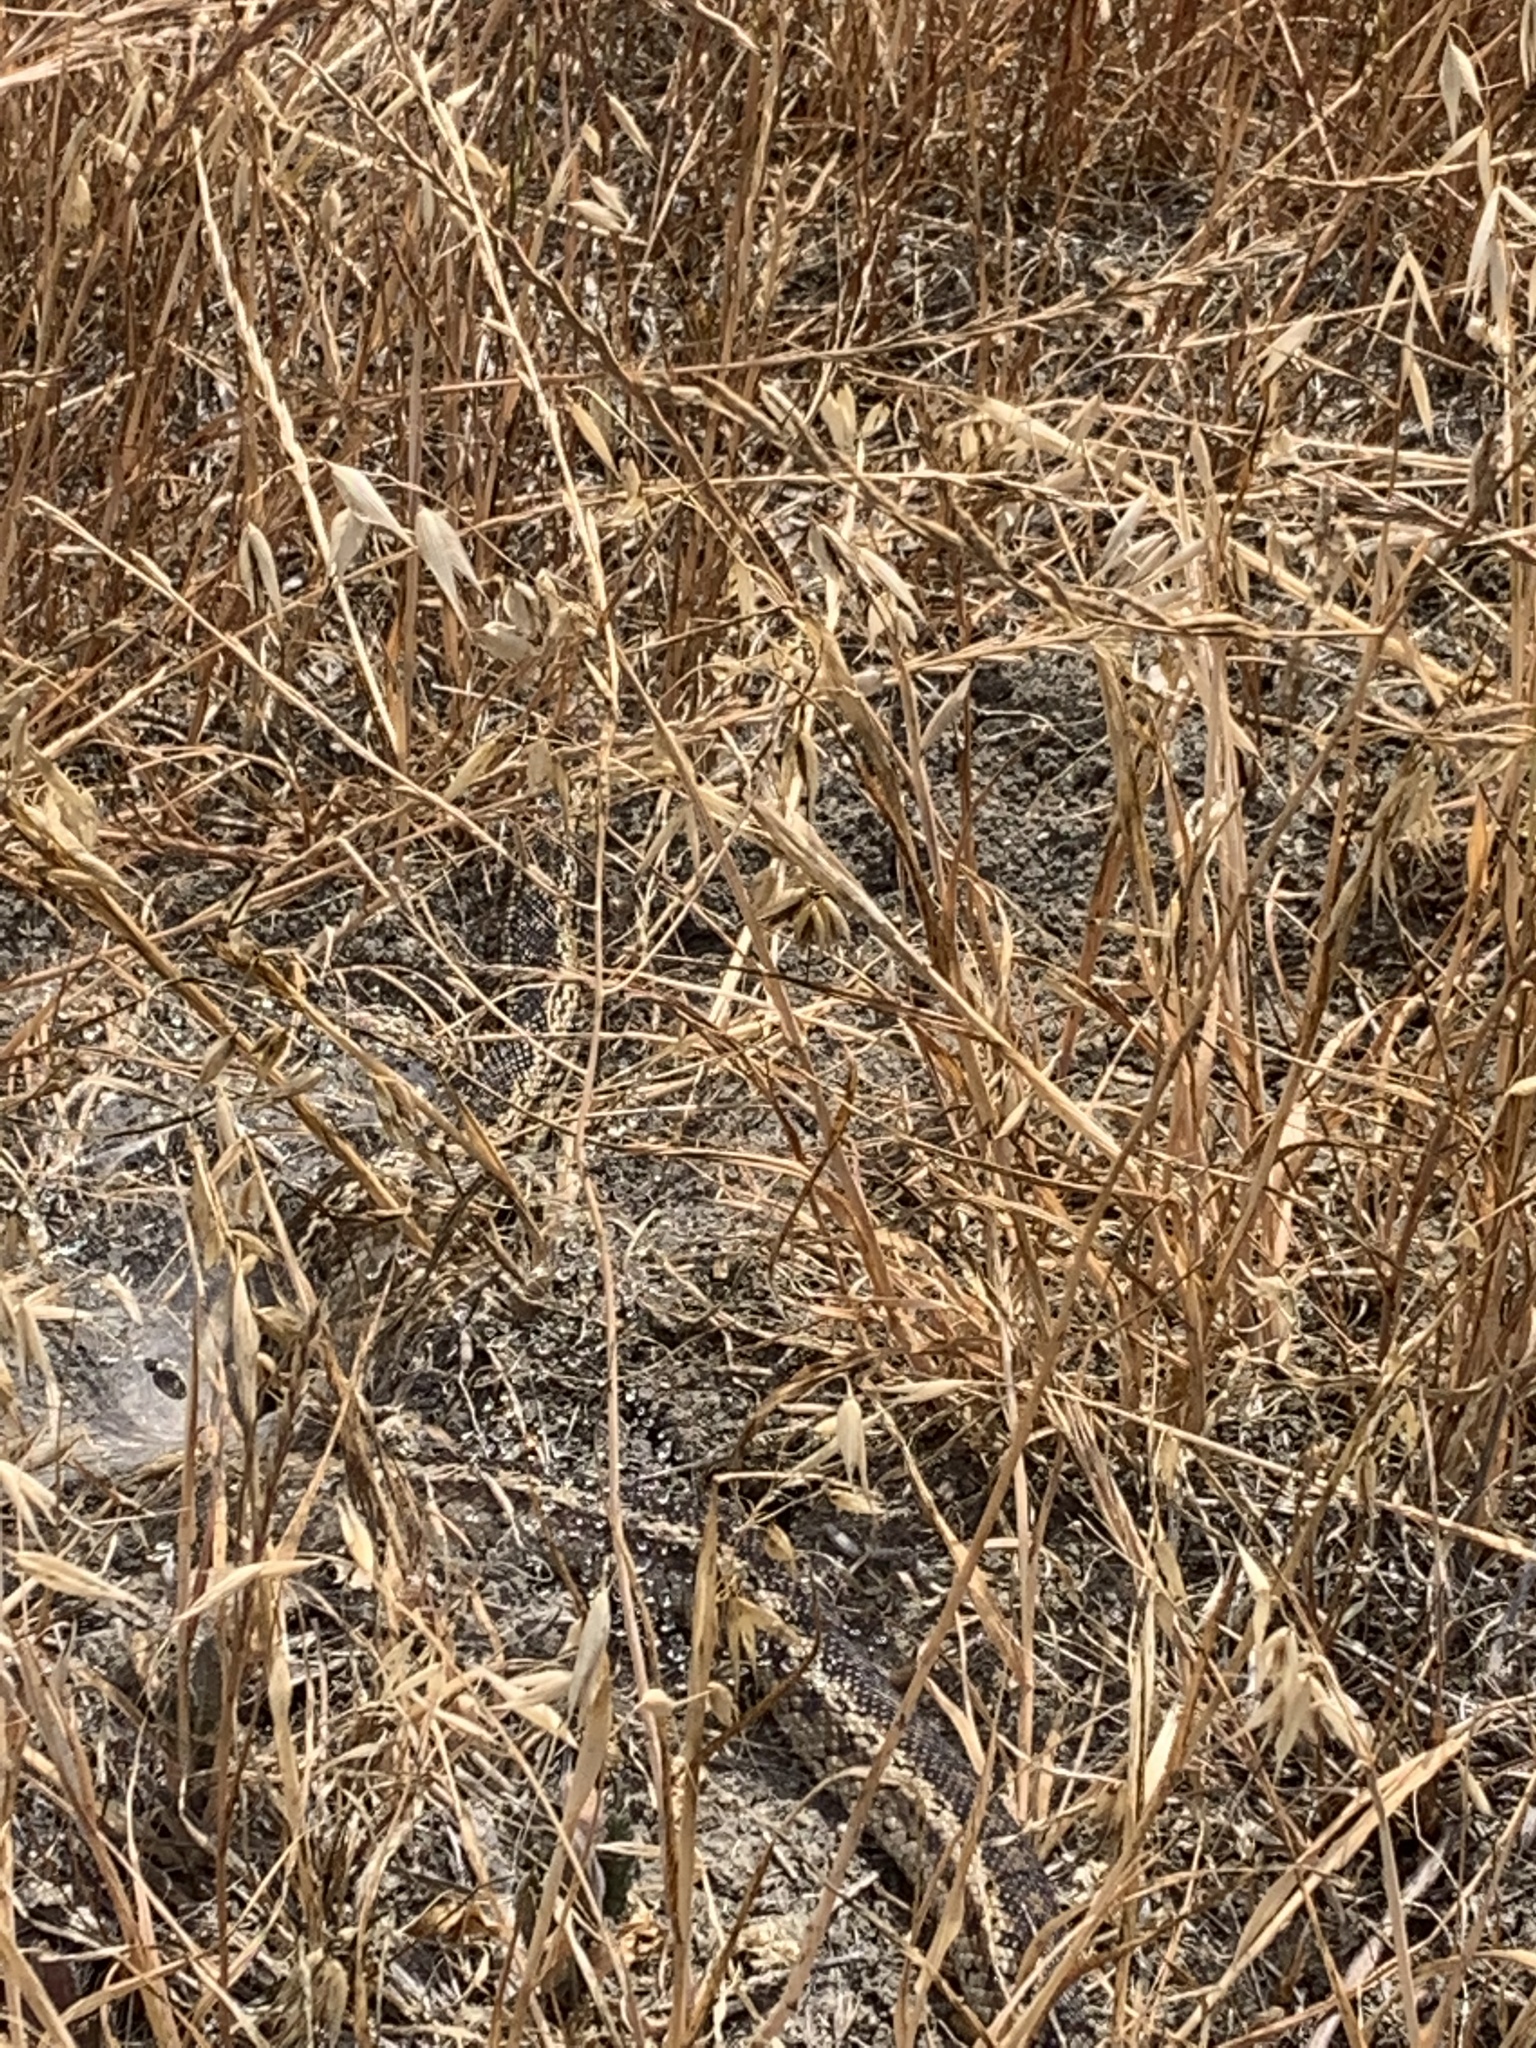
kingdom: Animalia
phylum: Chordata
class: Squamata
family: Colubridae
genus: Pituophis
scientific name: Pituophis catenifer
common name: Gopher snake
